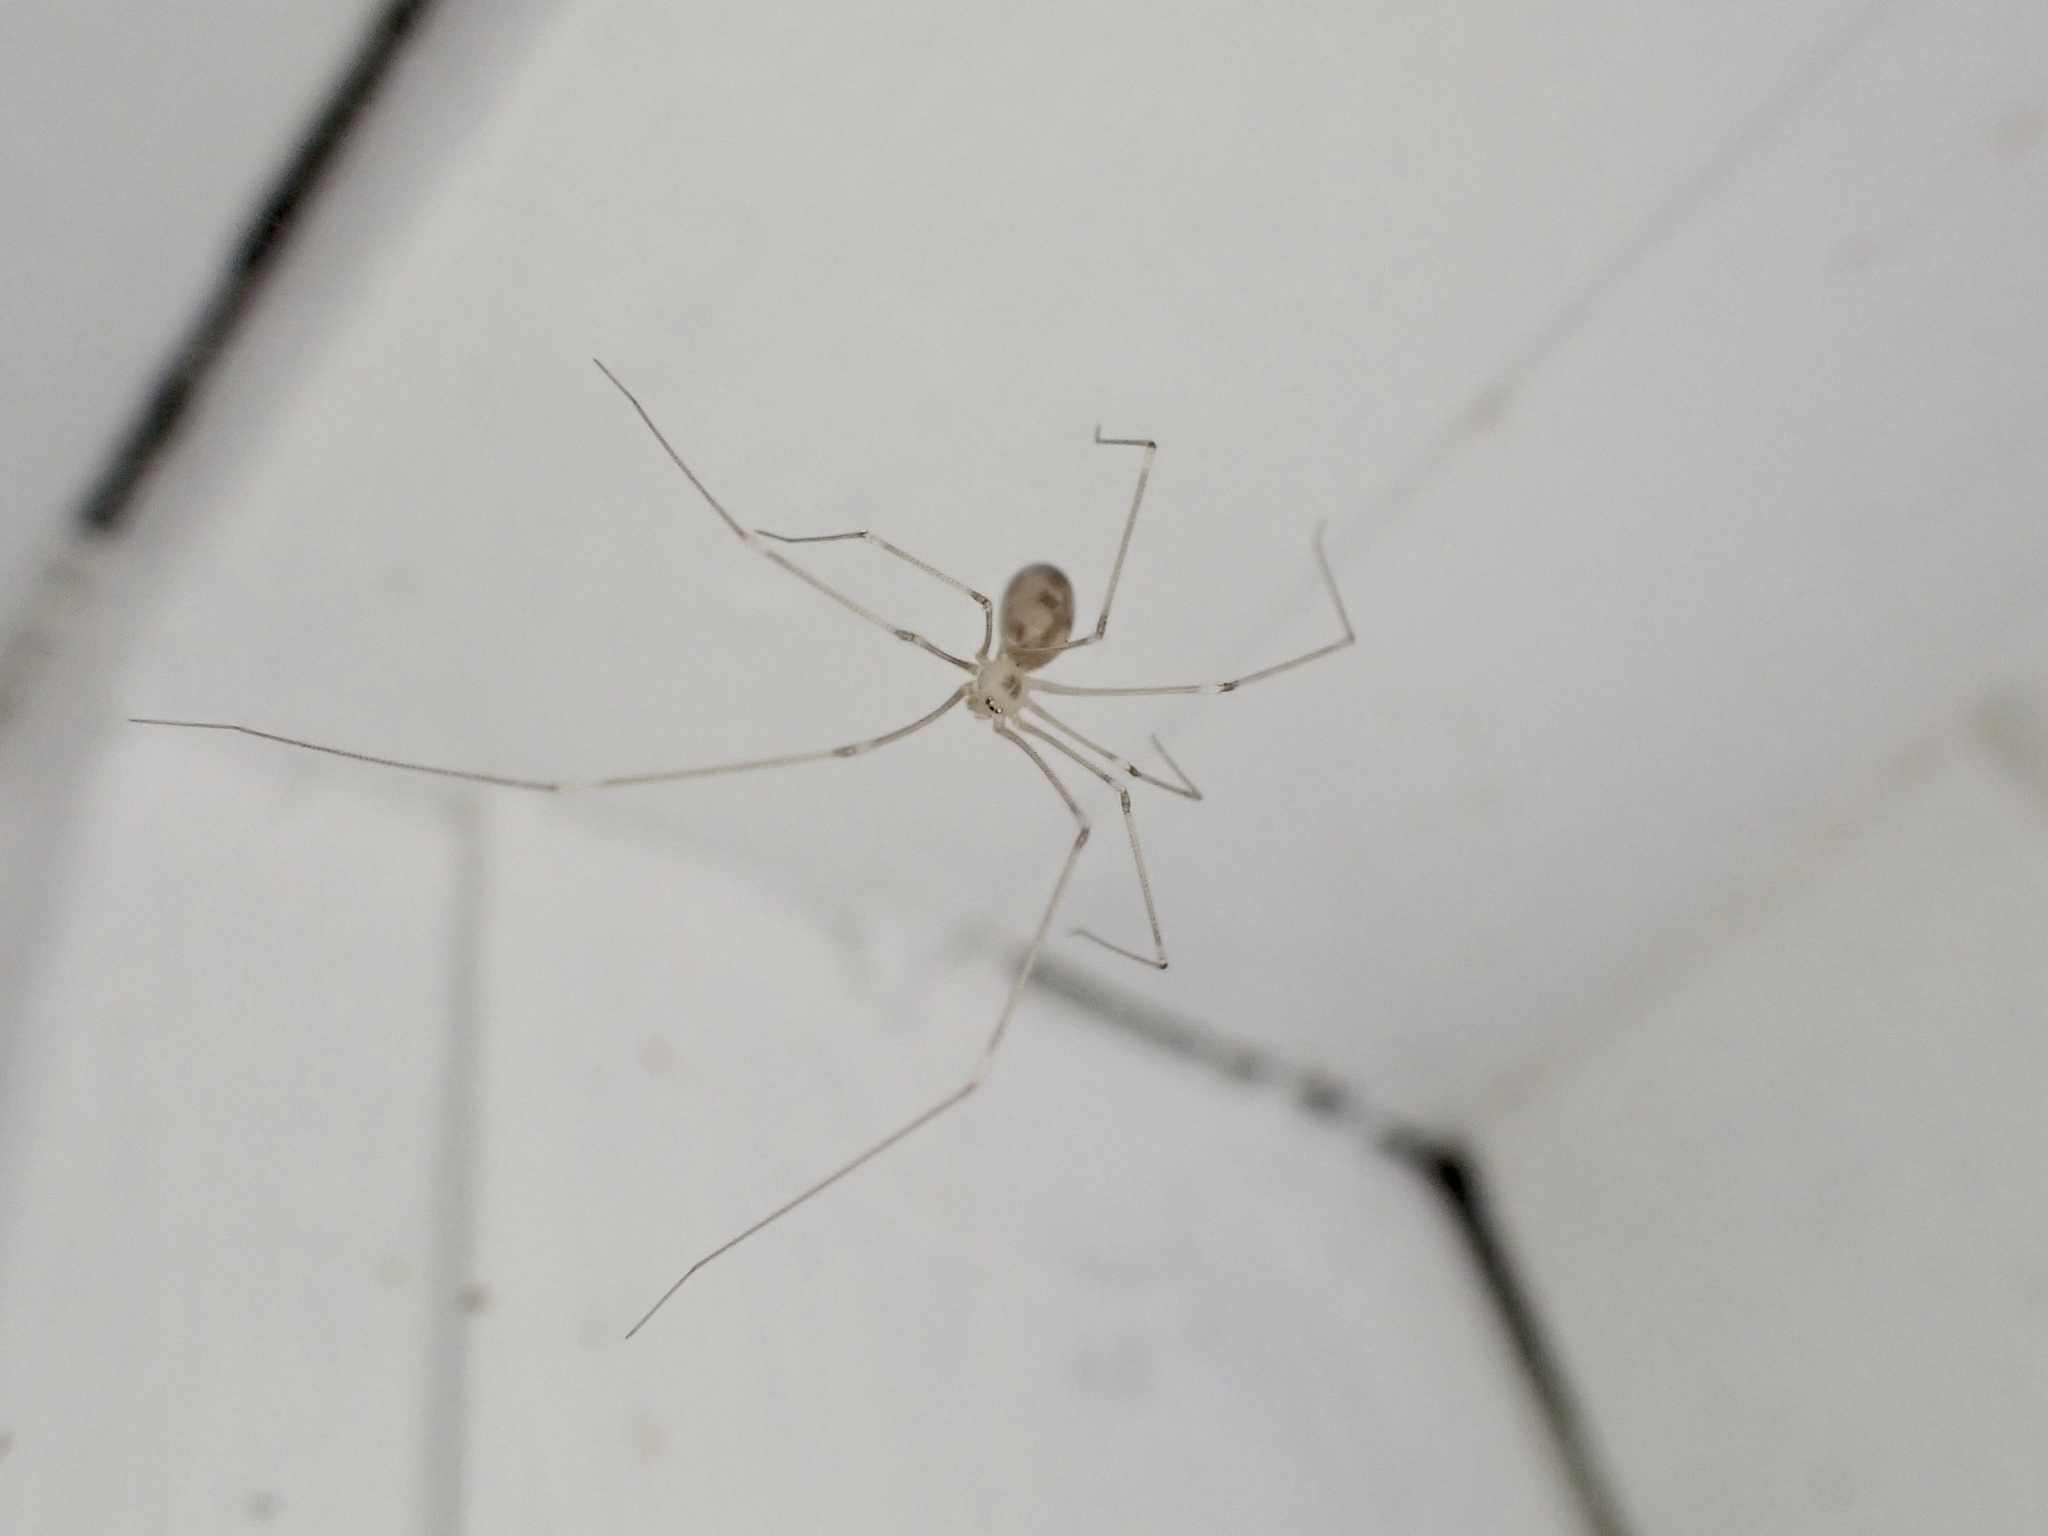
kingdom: Animalia
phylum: Arthropoda
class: Arachnida
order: Araneae
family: Pholcidae
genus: Pholcus
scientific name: Pholcus phalangioides
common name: Longbodied cellar spider
